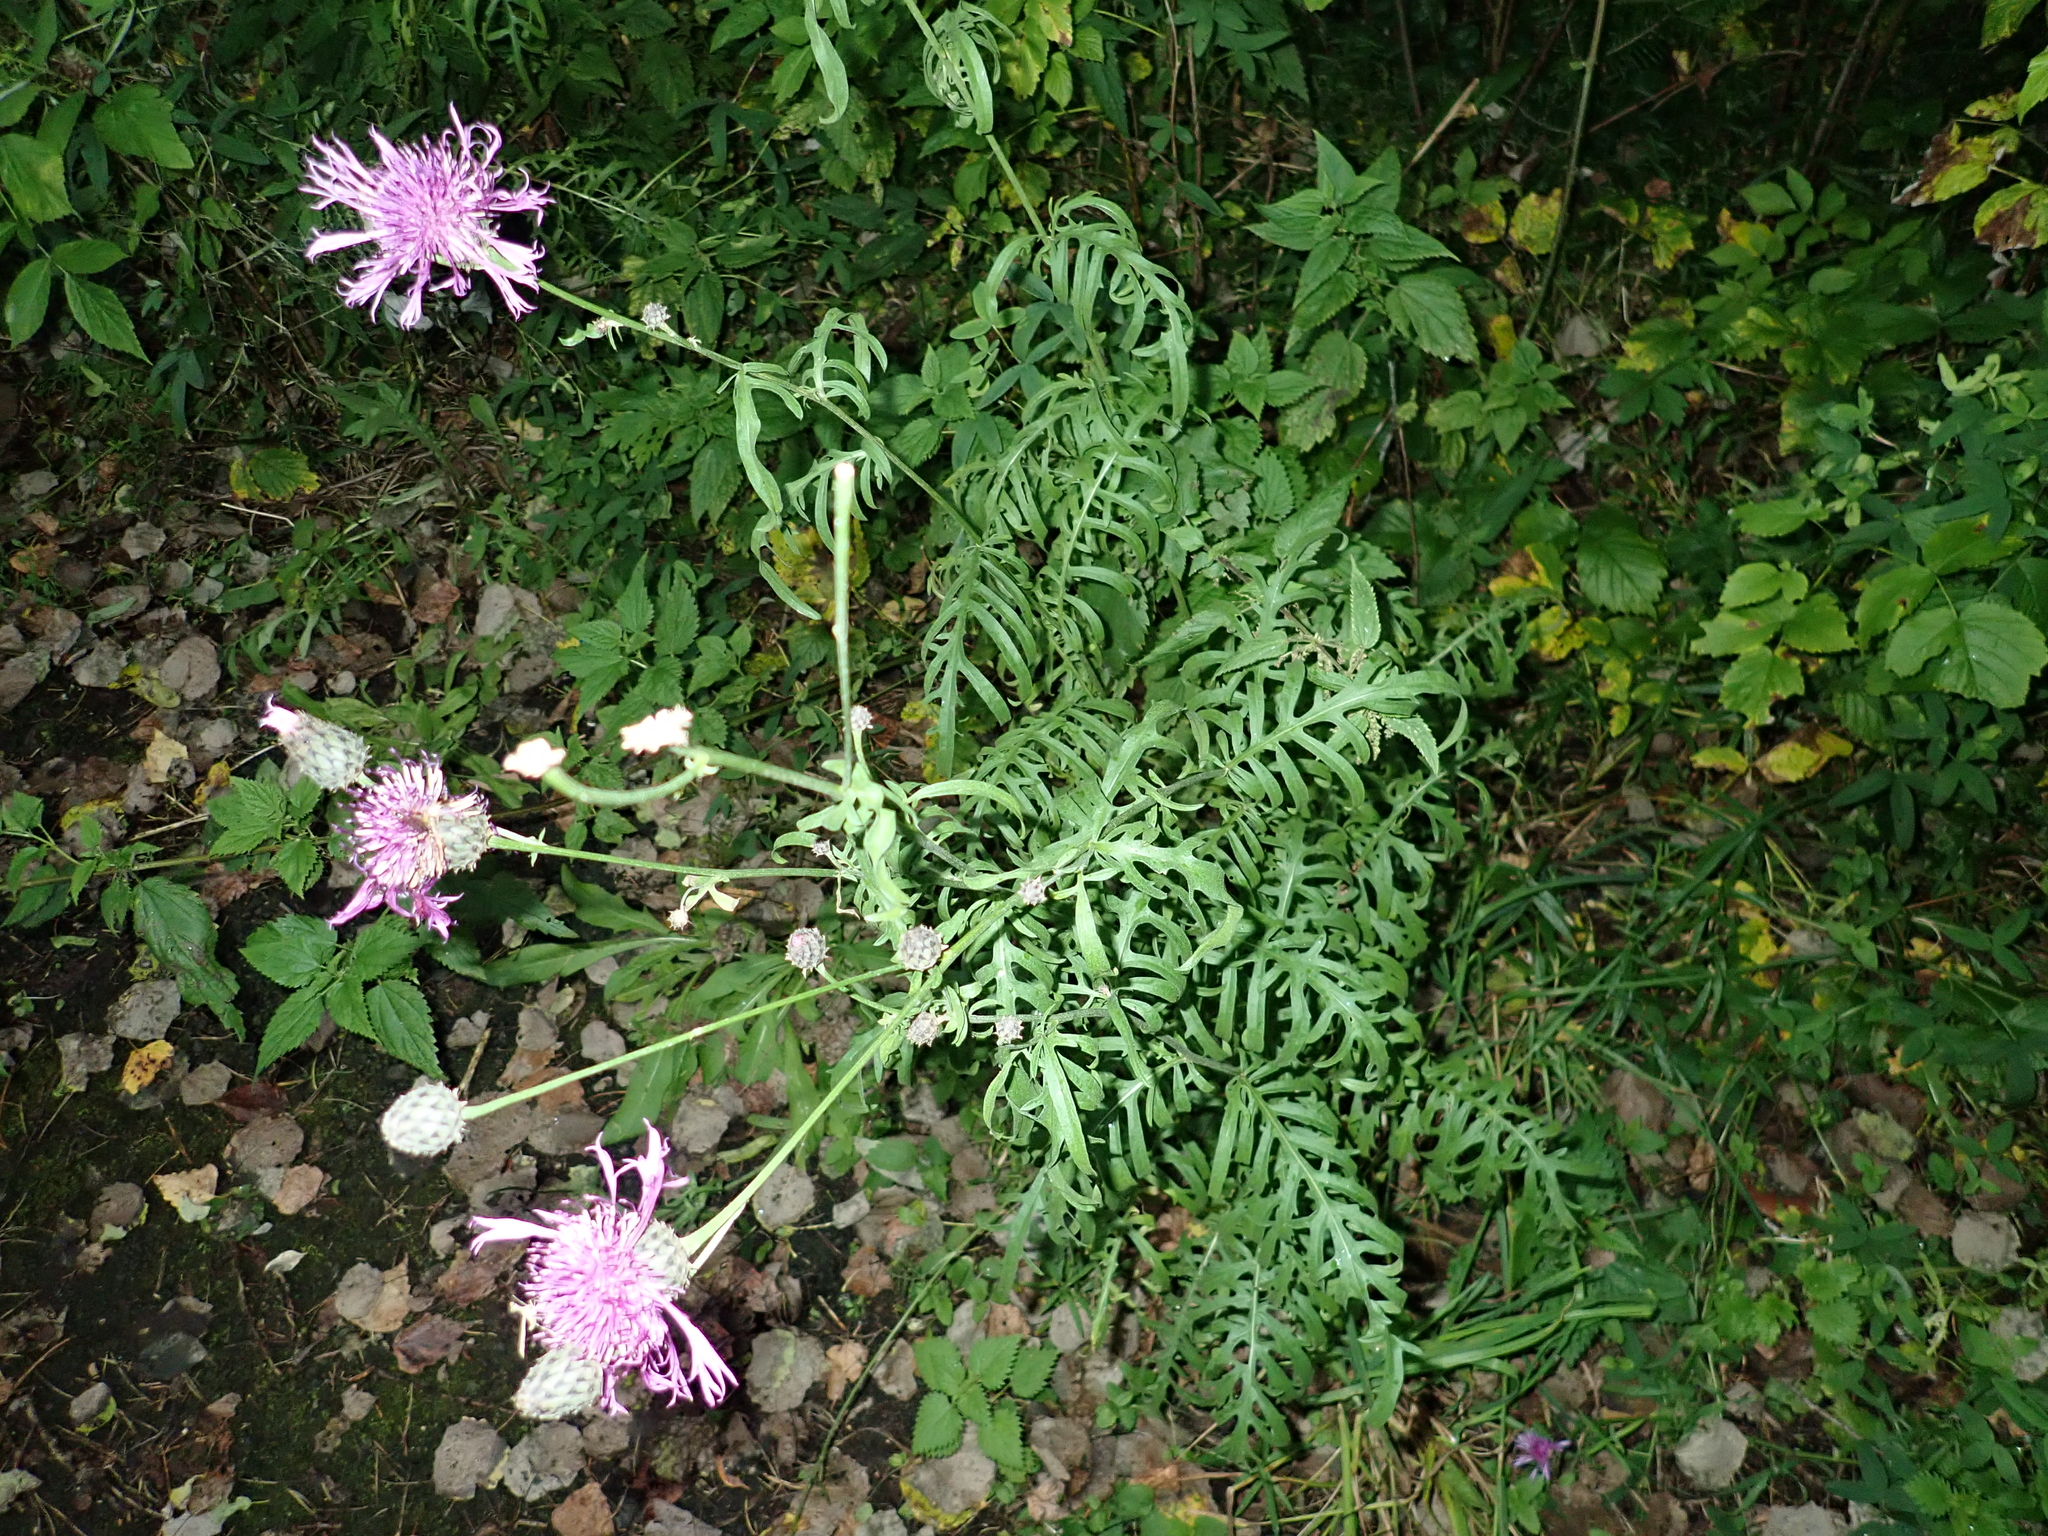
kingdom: Plantae
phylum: Tracheophyta
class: Magnoliopsida
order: Asterales
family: Asteraceae
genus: Centaurea
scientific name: Centaurea scabiosa
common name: Greater knapweed
